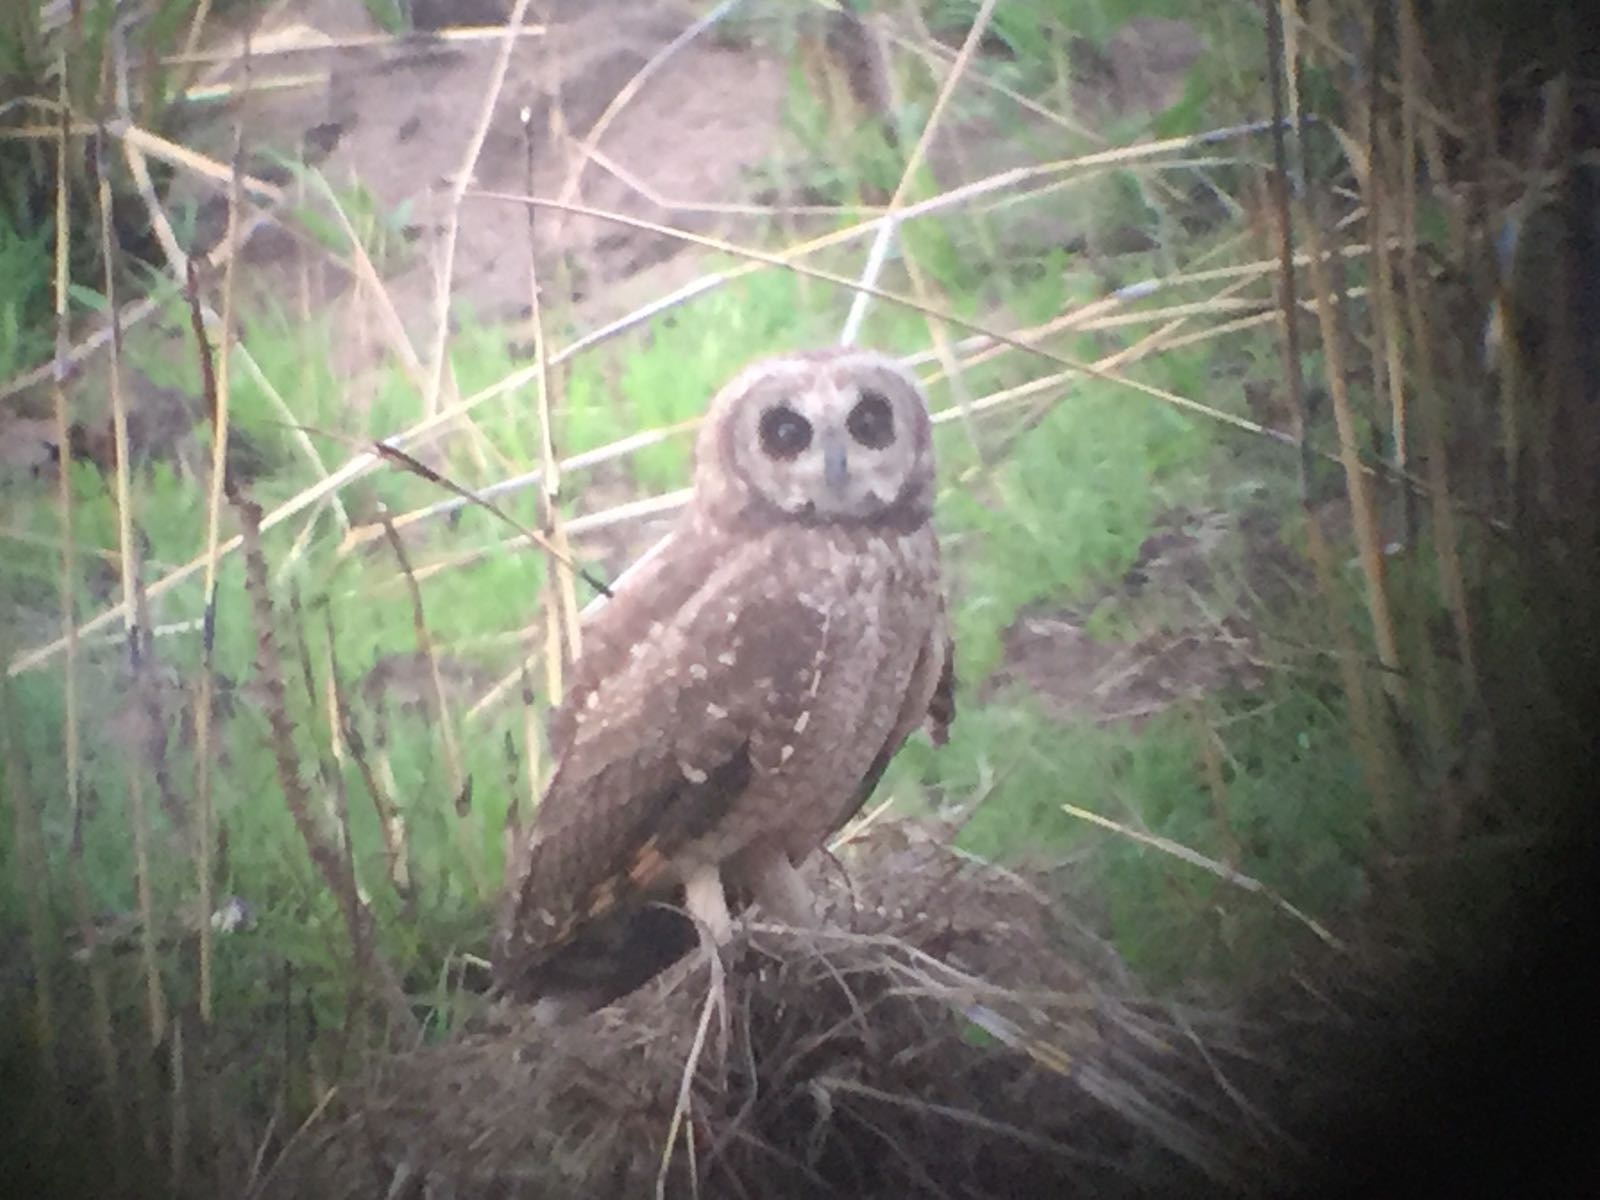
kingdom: Animalia
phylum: Chordata
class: Aves
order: Strigiformes
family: Strigidae
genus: Asio
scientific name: Asio capensis
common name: Marsh owl
